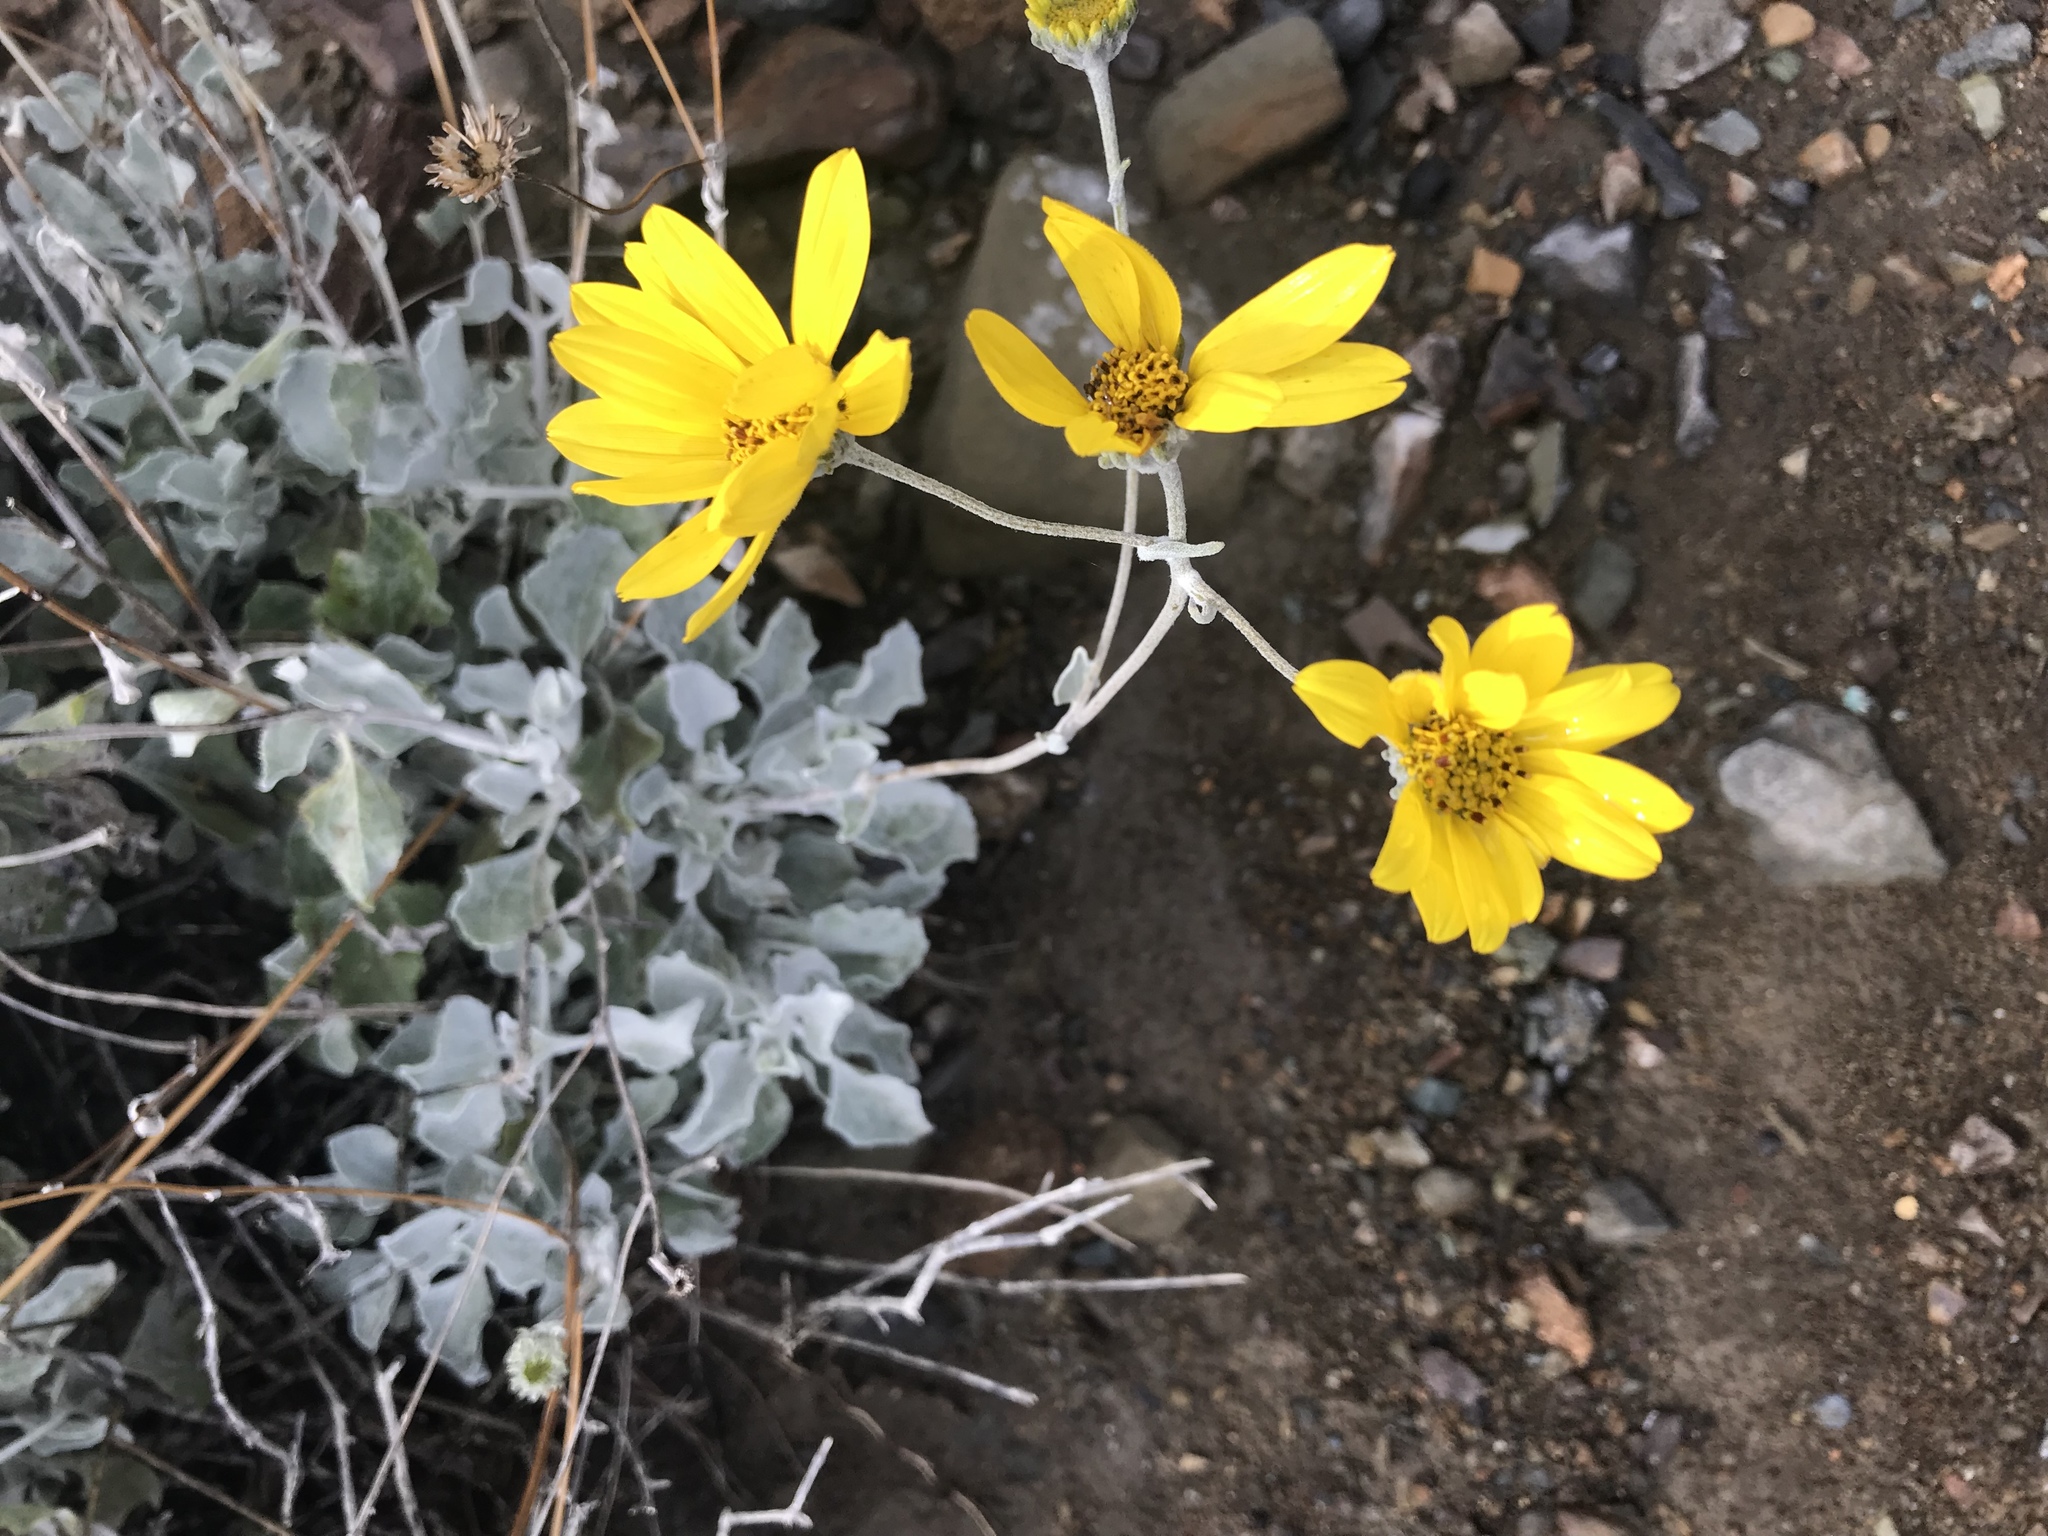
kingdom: Plantae
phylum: Tracheophyta
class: Magnoliopsida
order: Asterales
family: Asteraceae
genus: Bahiopsis
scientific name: Bahiopsis lanata
